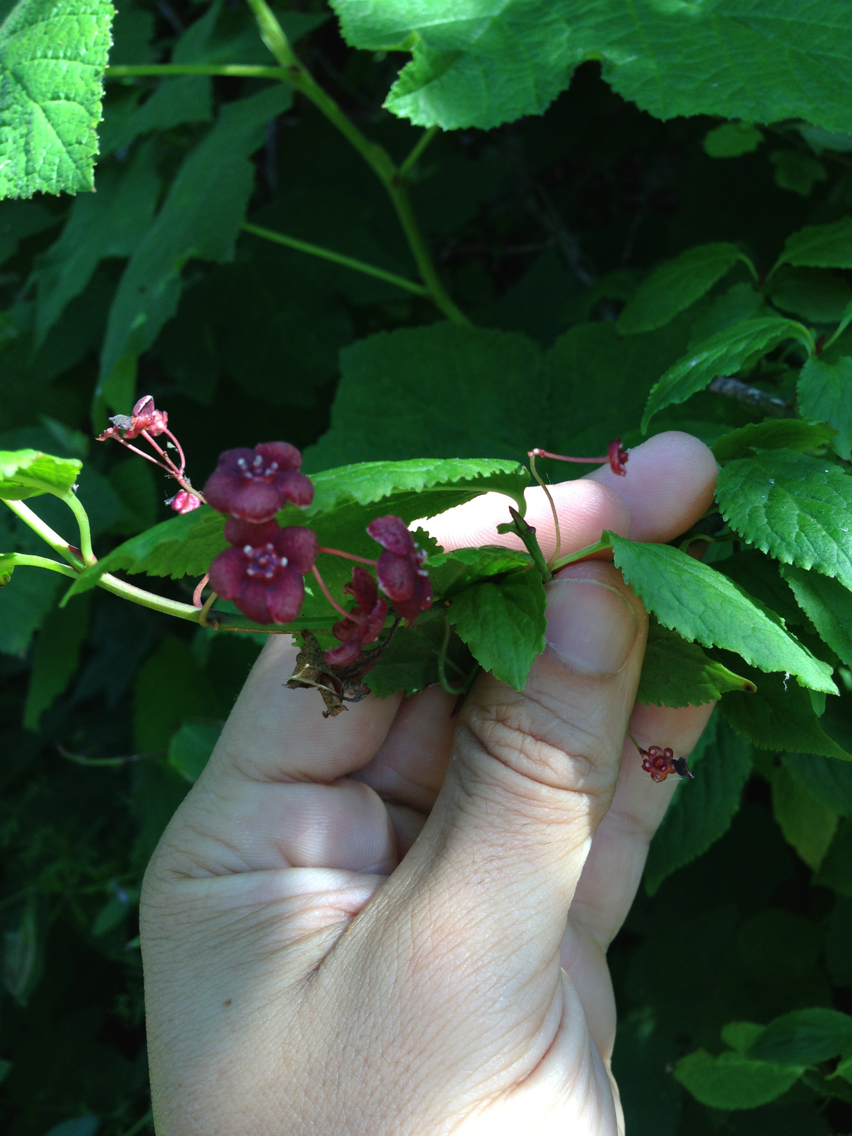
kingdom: Plantae
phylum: Tracheophyta
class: Magnoliopsida
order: Celastrales
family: Celastraceae
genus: Euonymus
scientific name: Euonymus occidentalis
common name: Western burningbush
